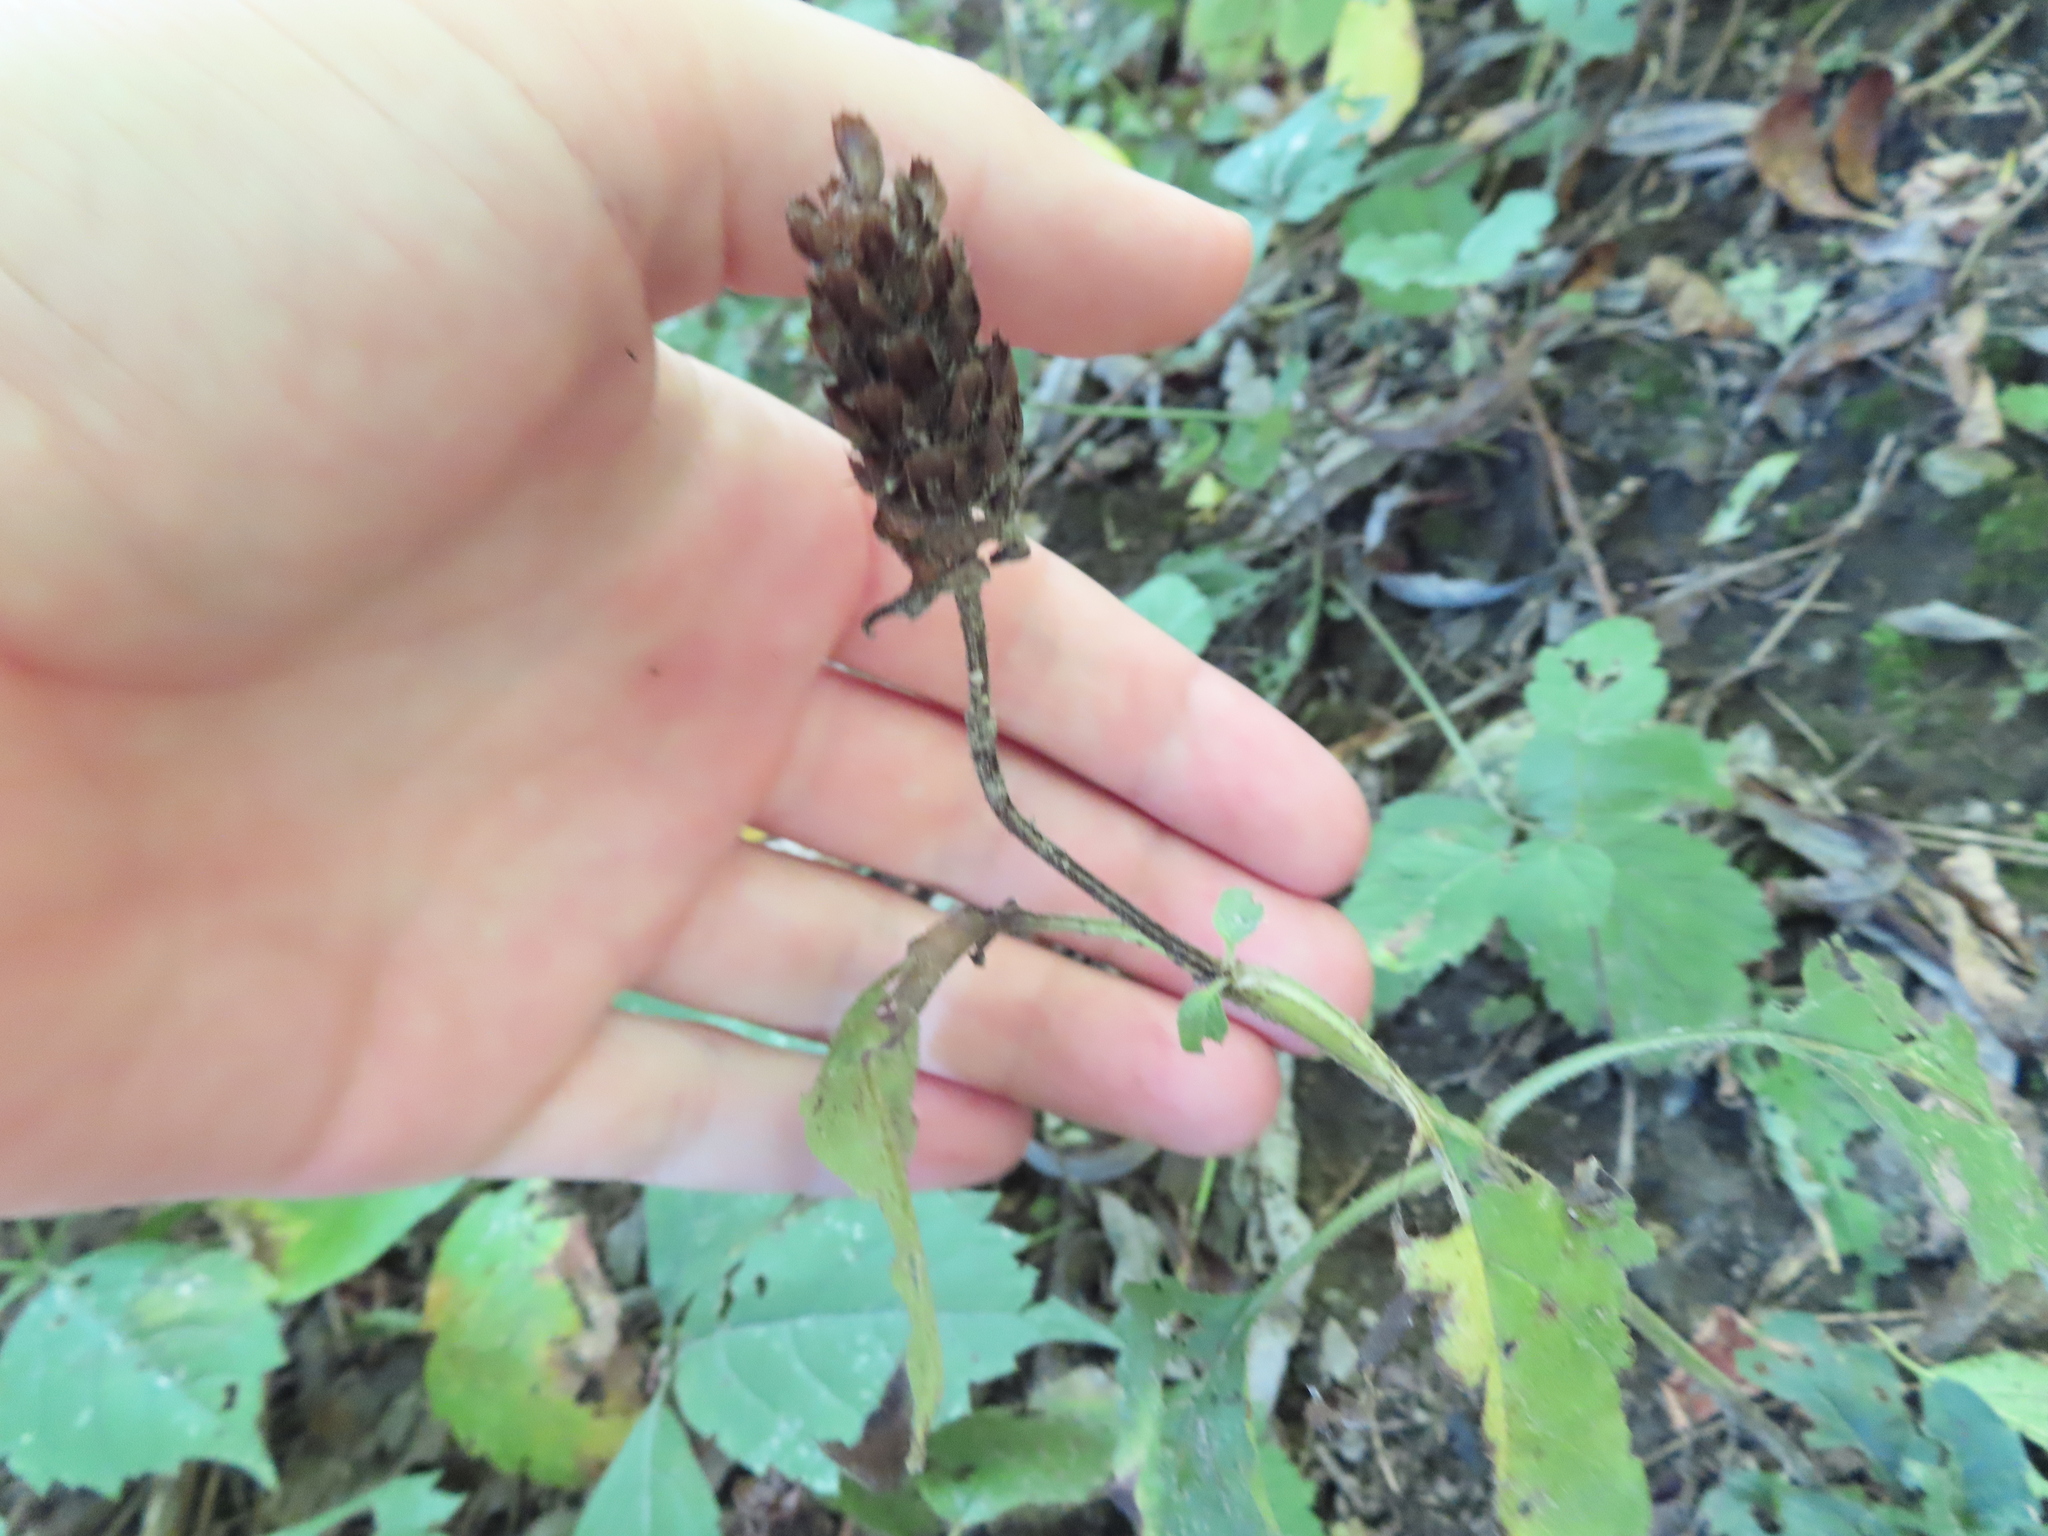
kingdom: Plantae
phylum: Tracheophyta
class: Magnoliopsida
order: Lamiales
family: Lamiaceae
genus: Prunella
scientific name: Prunella vulgaris
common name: Heal-all
